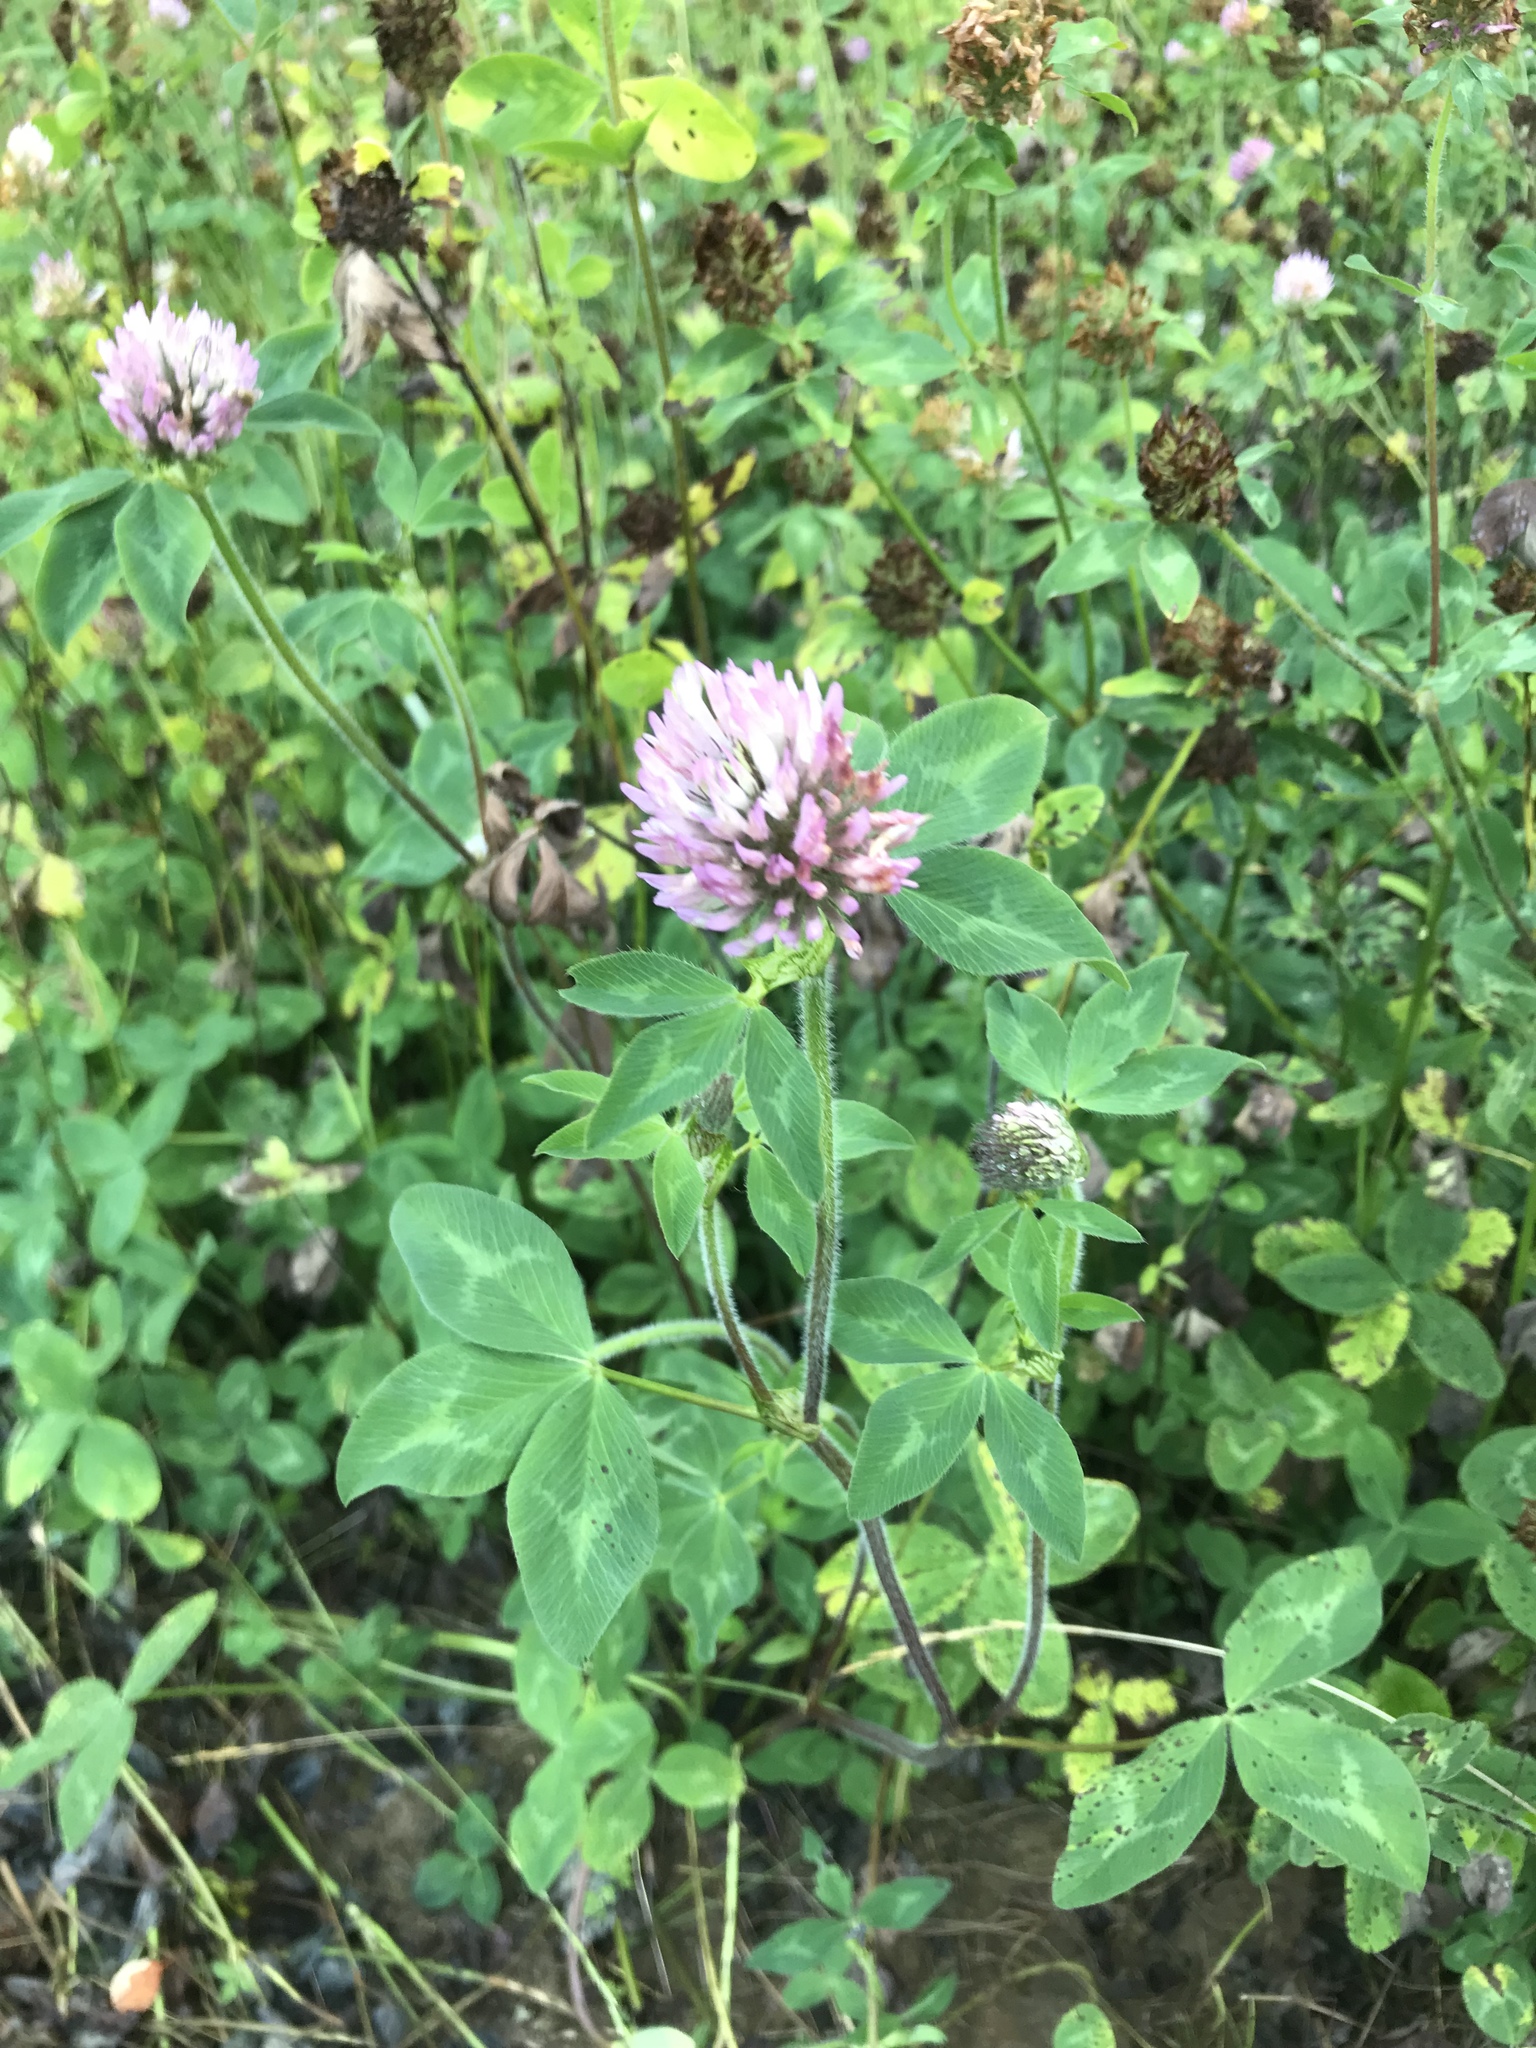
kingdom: Plantae
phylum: Tracheophyta
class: Magnoliopsida
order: Fabales
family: Fabaceae
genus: Trifolium
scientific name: Trifolium pratense
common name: Red clover
